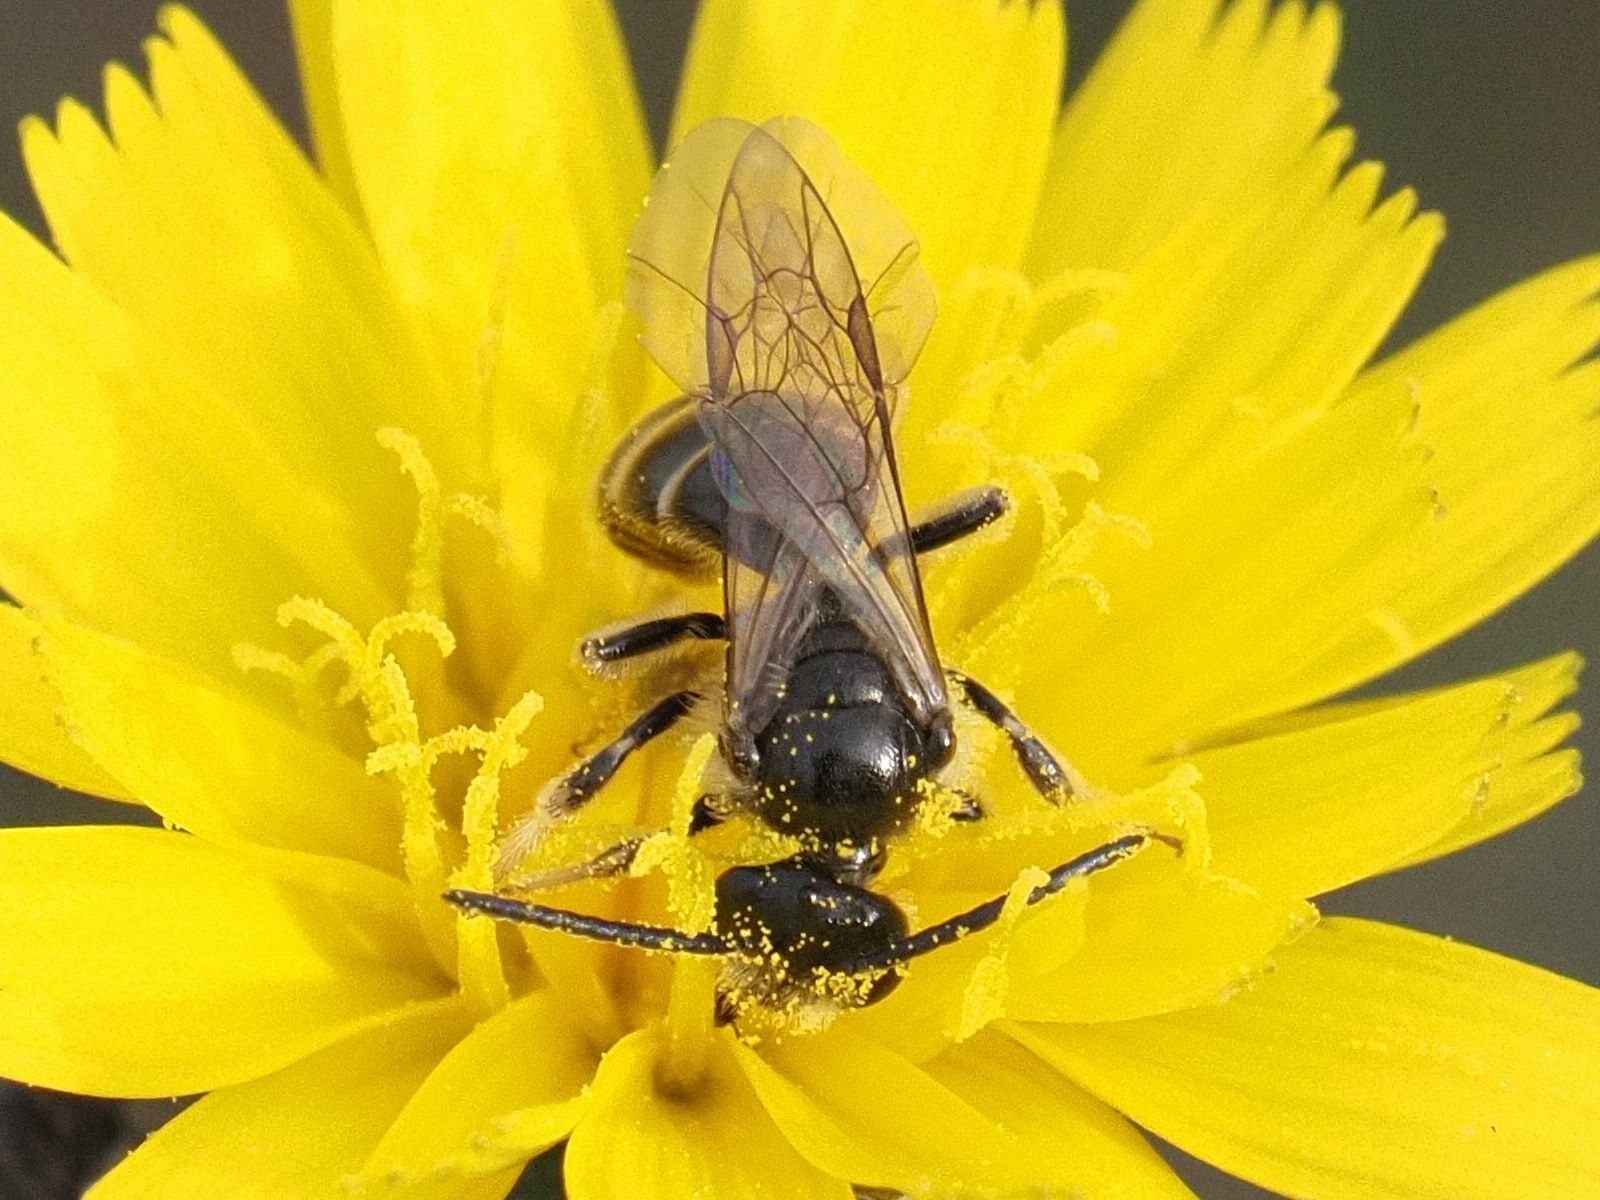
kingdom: Animalia
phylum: Arthropoda
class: Insecta
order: Hymenoptera
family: Halictidae
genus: Lasioglossum
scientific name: Lasioglossum marginatum
